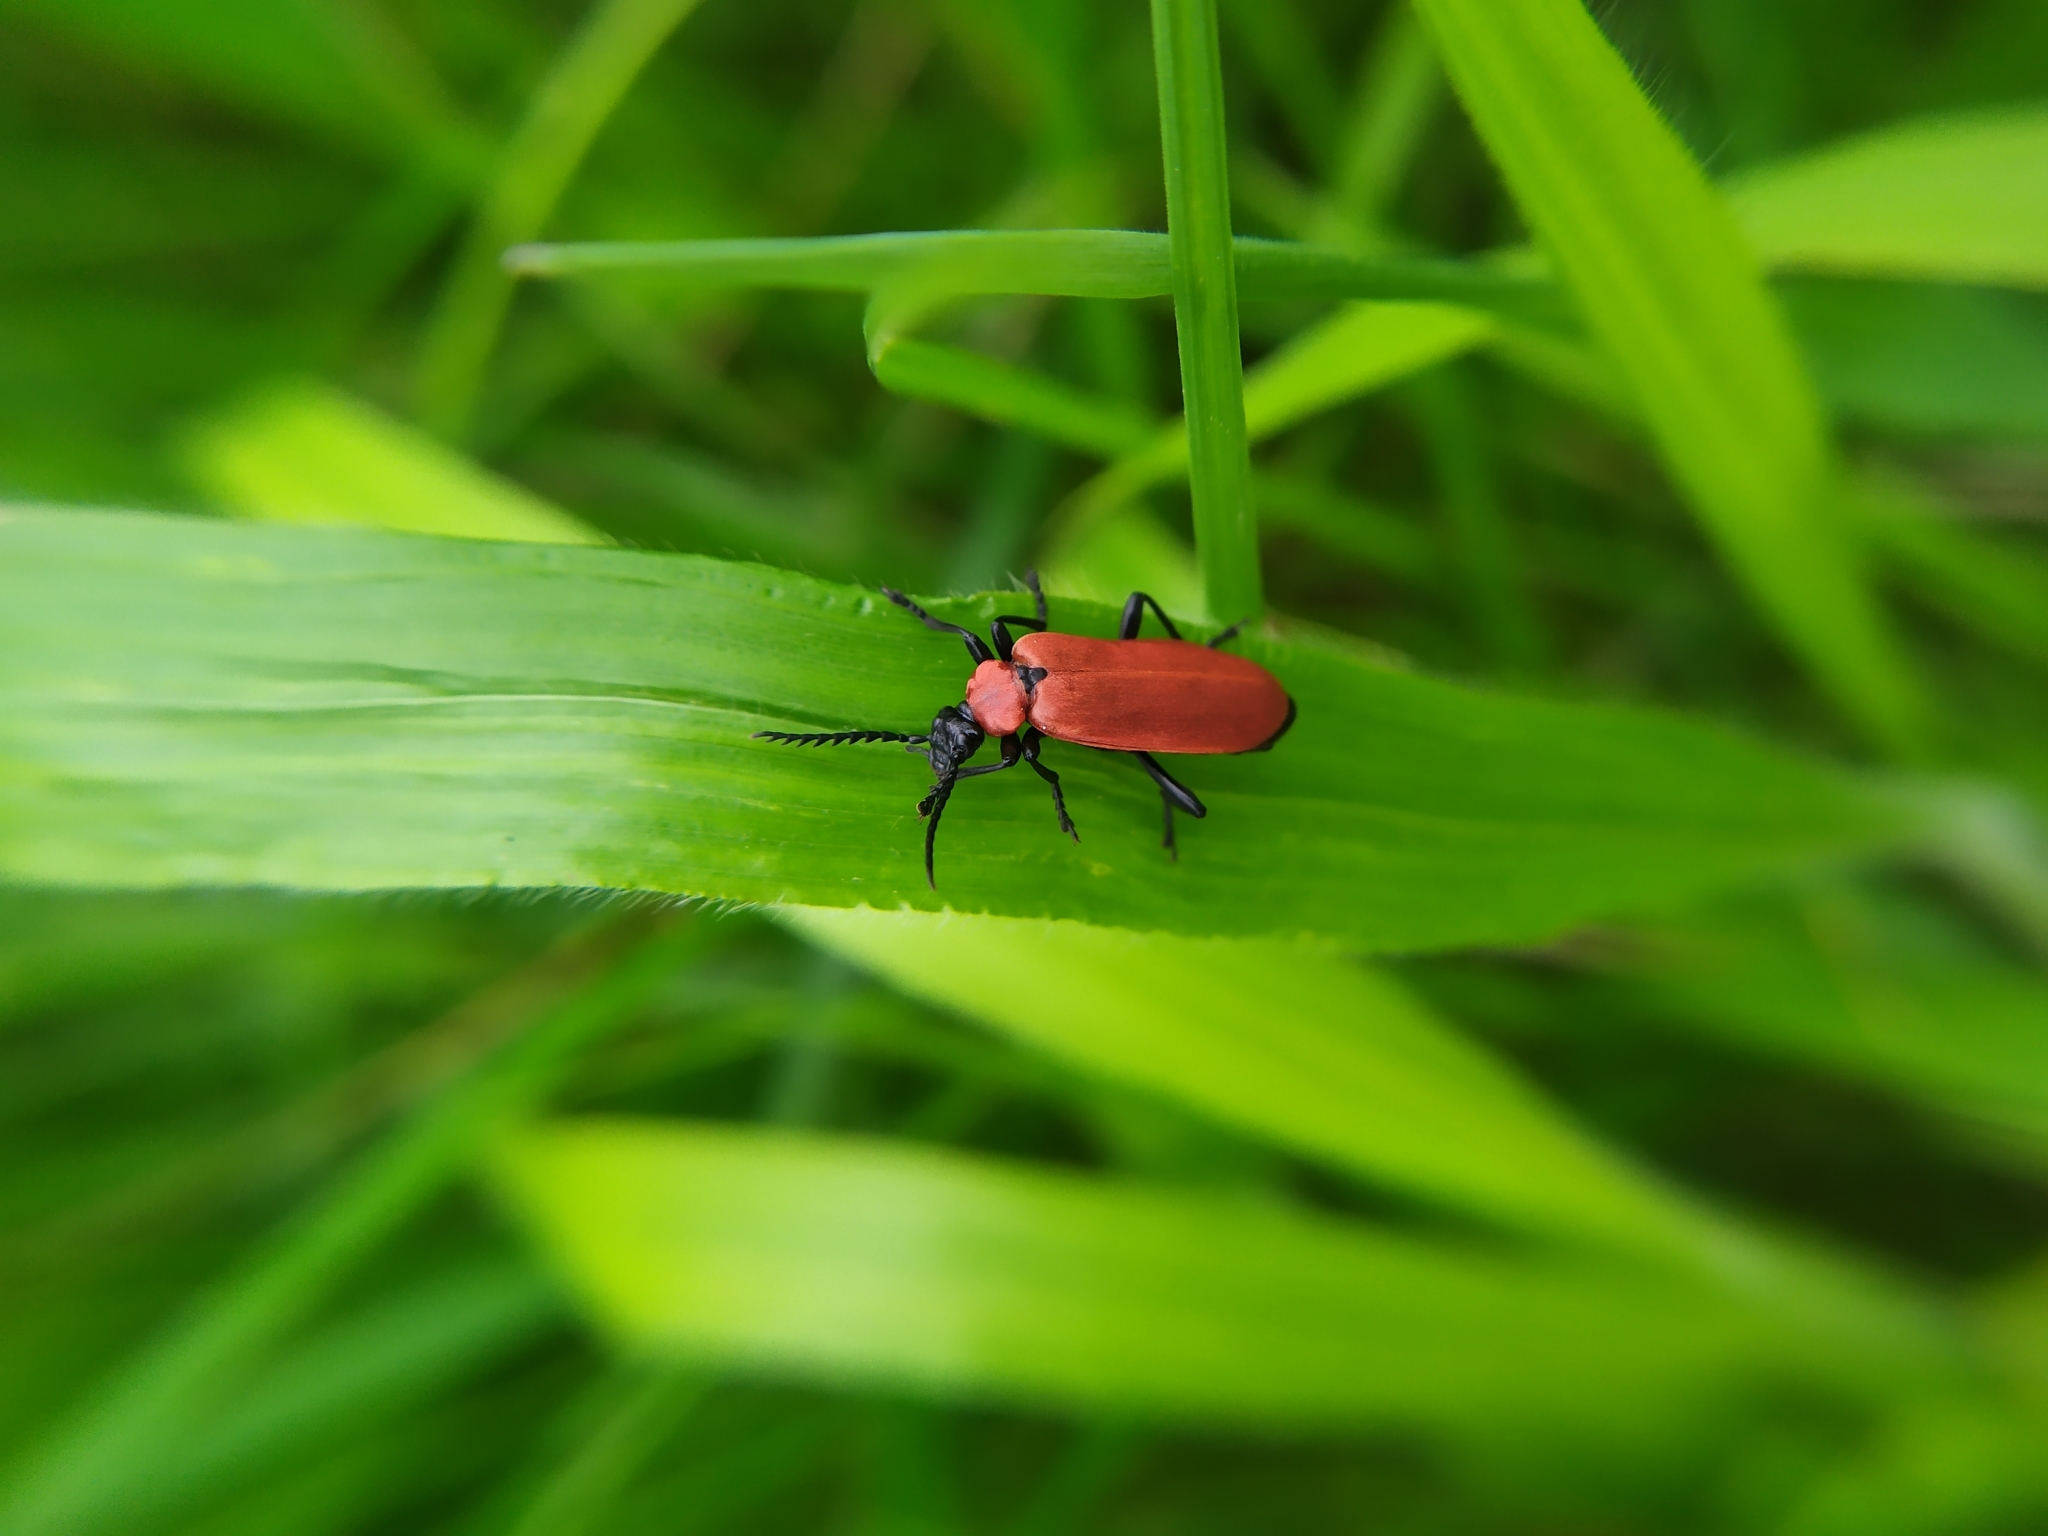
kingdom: Animalia
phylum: Arthropoda
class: Insecta
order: Coleoptera
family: Pyrochroidae
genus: Pyrochroa
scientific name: Pyrochroa coccinea
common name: Black-headed cardinal beetle
